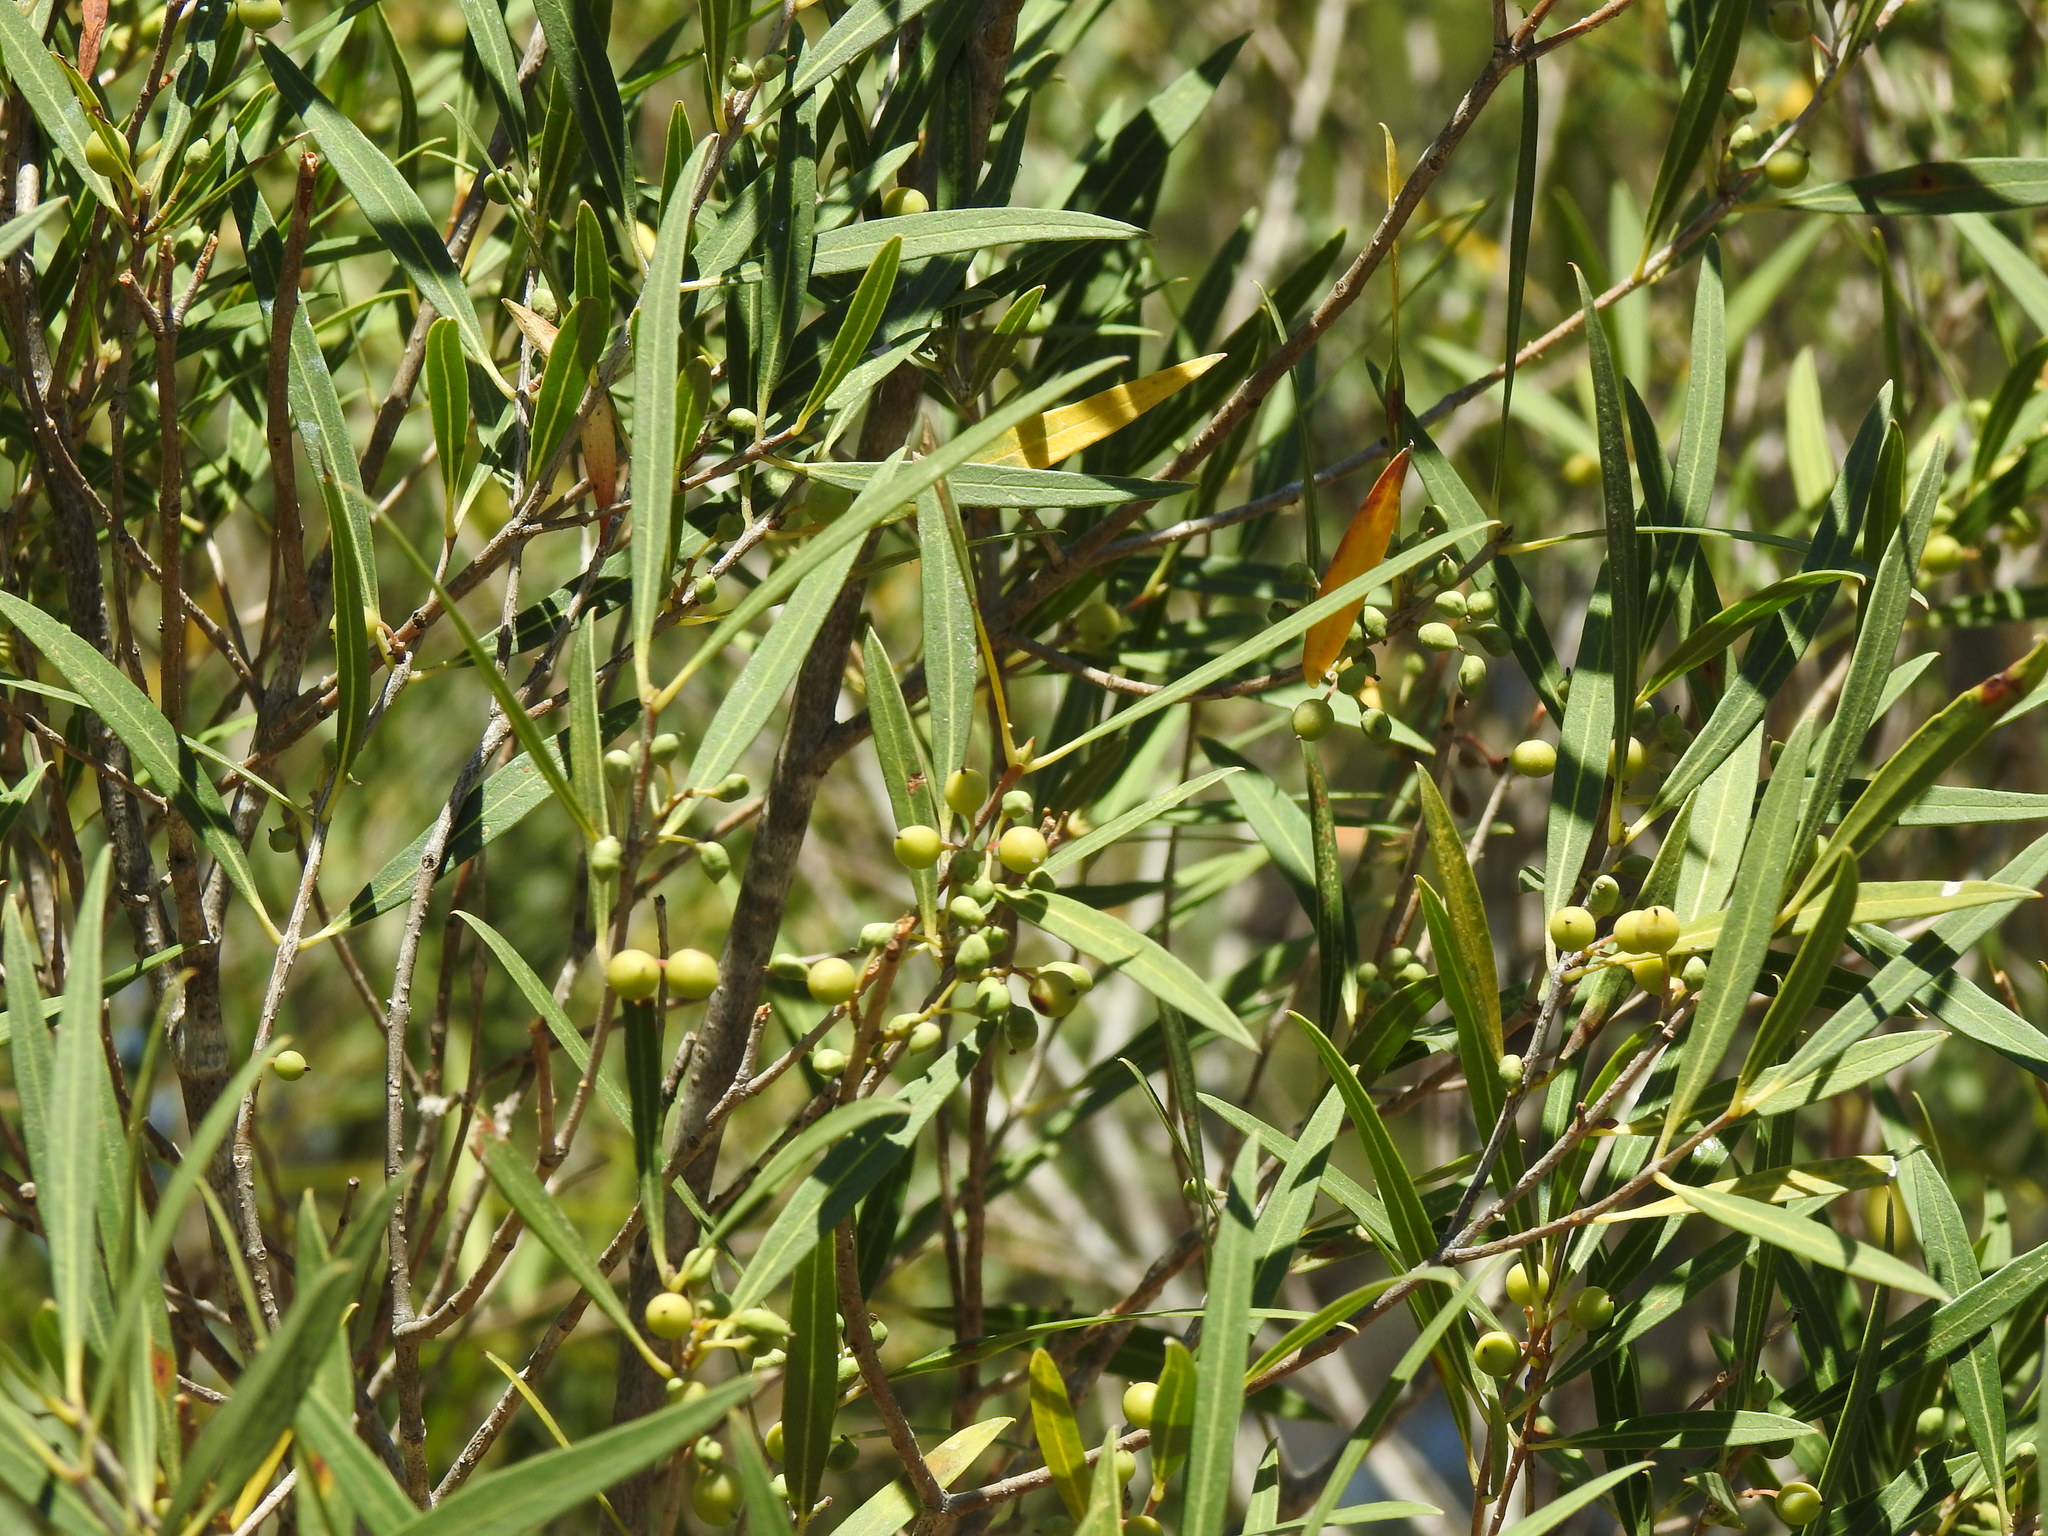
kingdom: Plantae
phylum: Tracheophyta
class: Magnoliopsida
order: Lamiales
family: Oleaceae
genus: Phillyrea
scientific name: Phillyrea angustifolia
